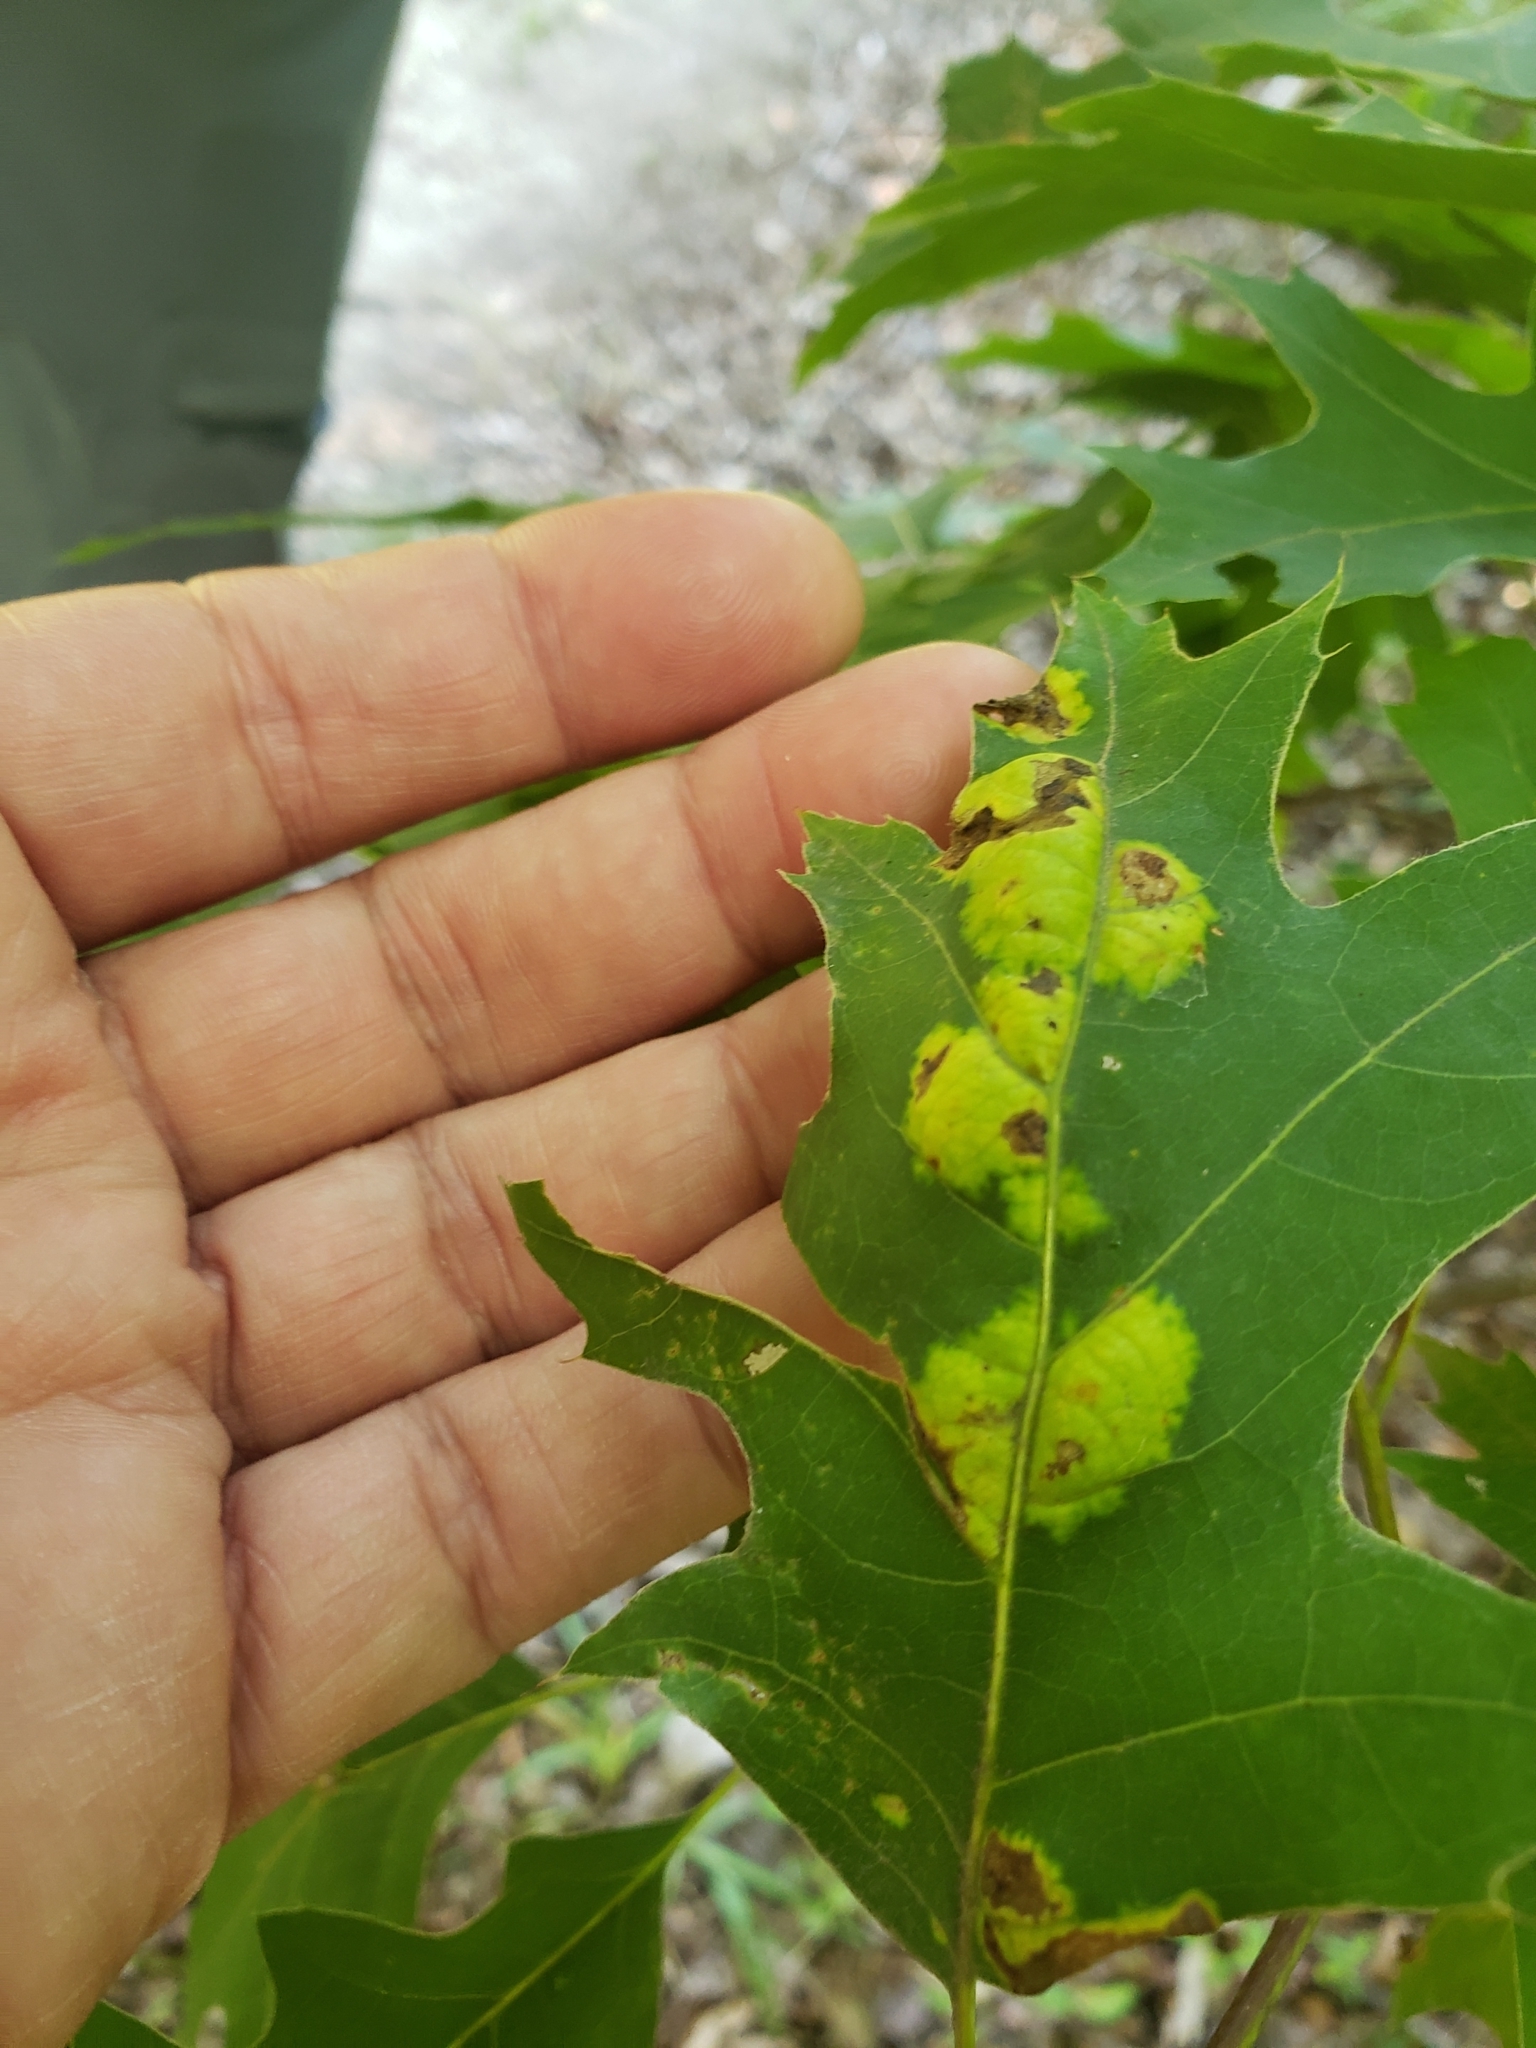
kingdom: Fungi
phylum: Ascomycota
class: Taphrinomycetes
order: Taphrinales
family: Taphrinaceae
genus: Taphrina
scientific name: Taphrina caerulescens
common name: Oak leaf blister
